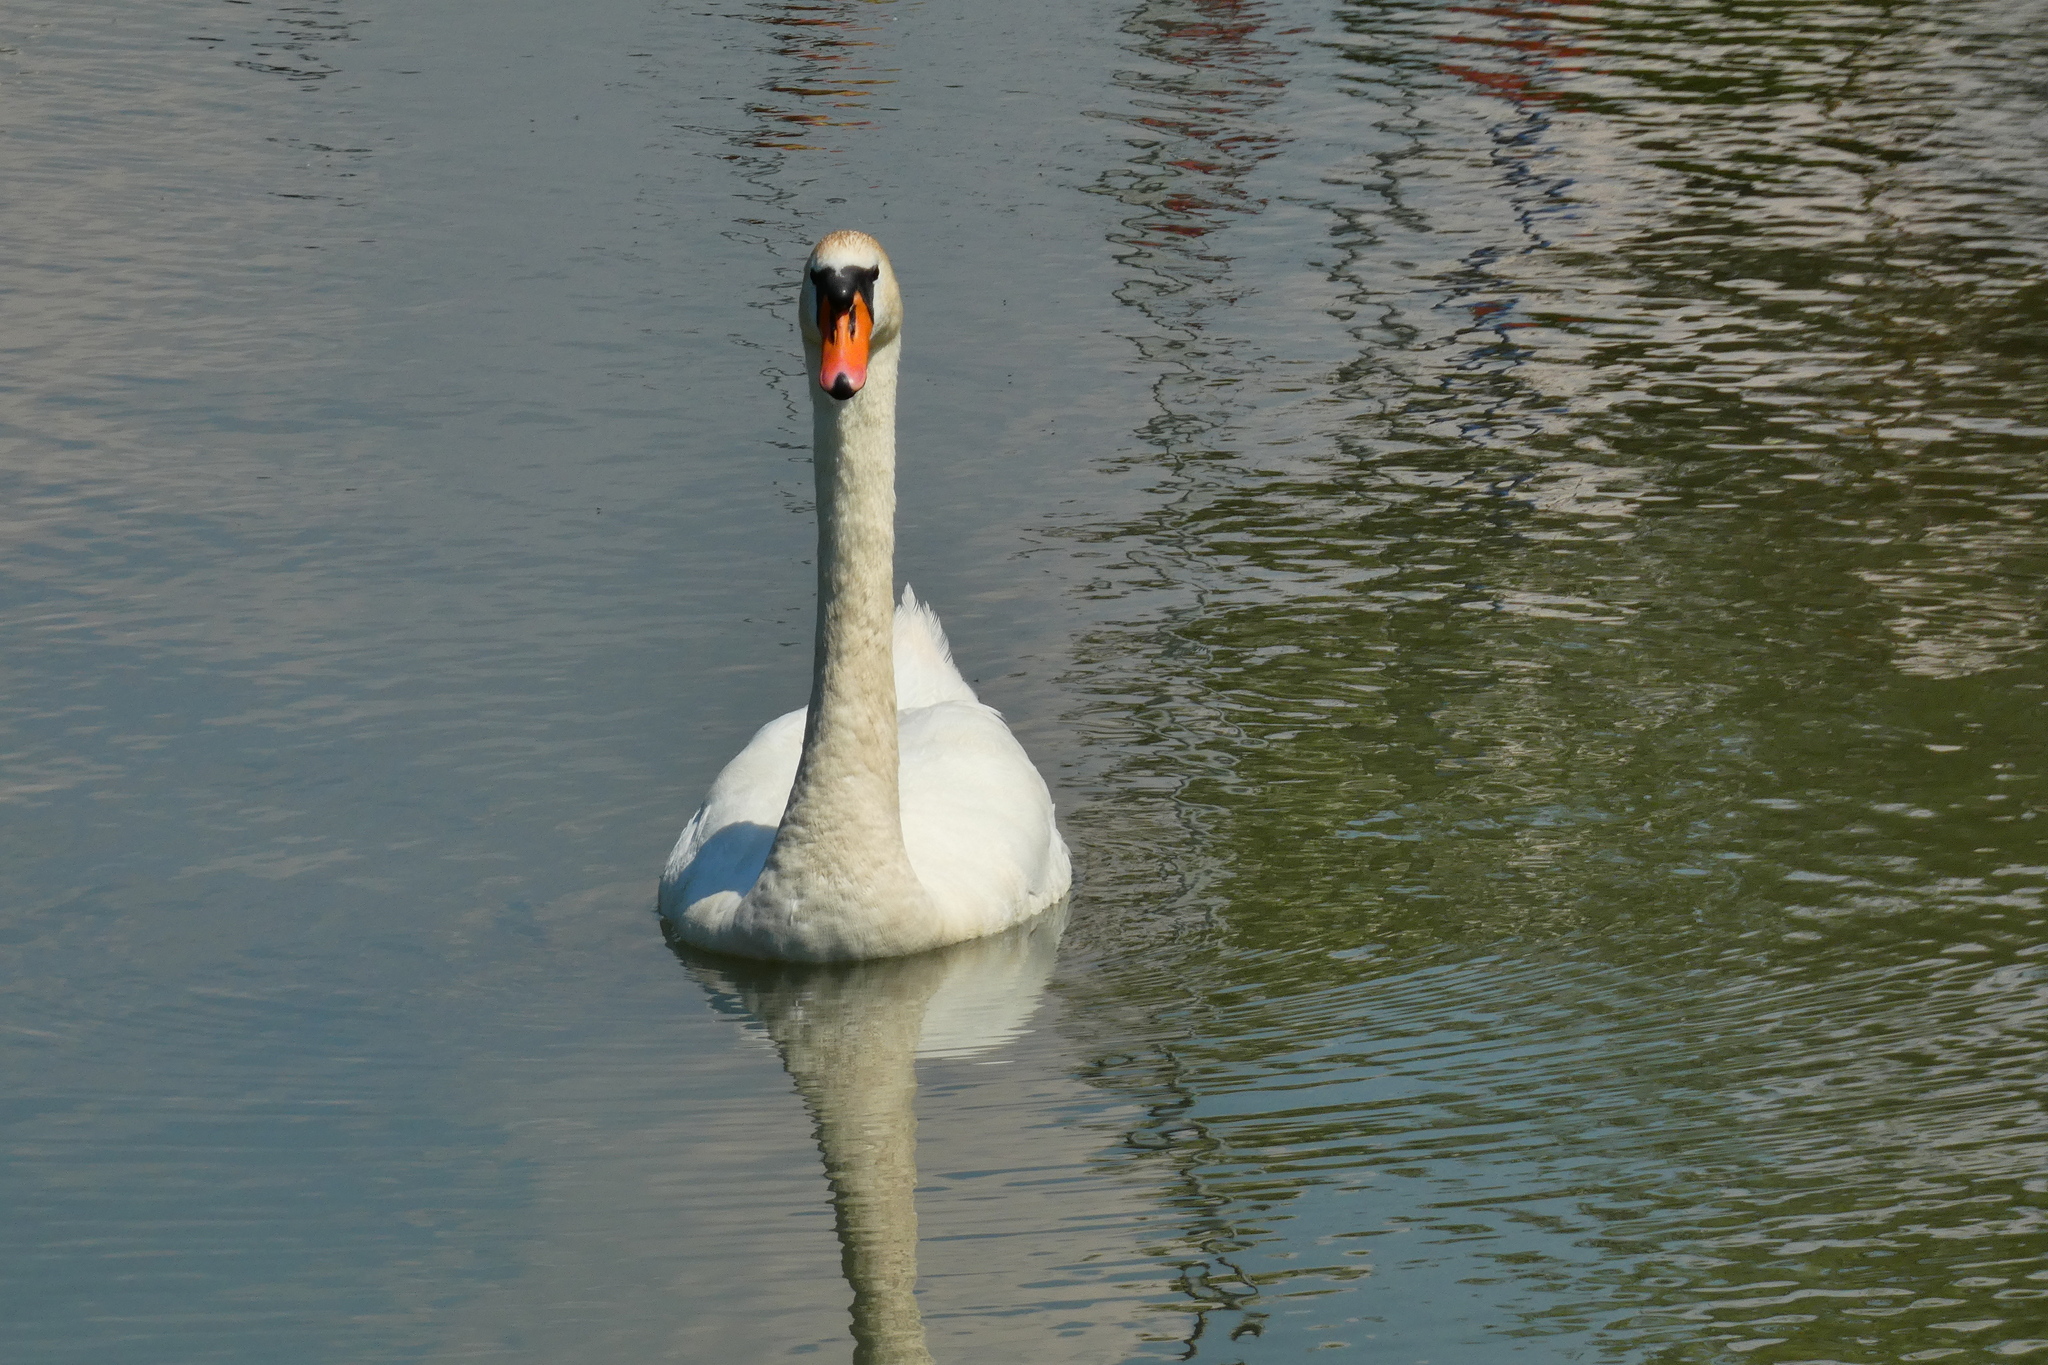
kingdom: Animalia
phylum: Chordata
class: Aves
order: Anseriformes
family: Anatidae
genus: Cygnus
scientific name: Cygnus olor
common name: Mute swan
